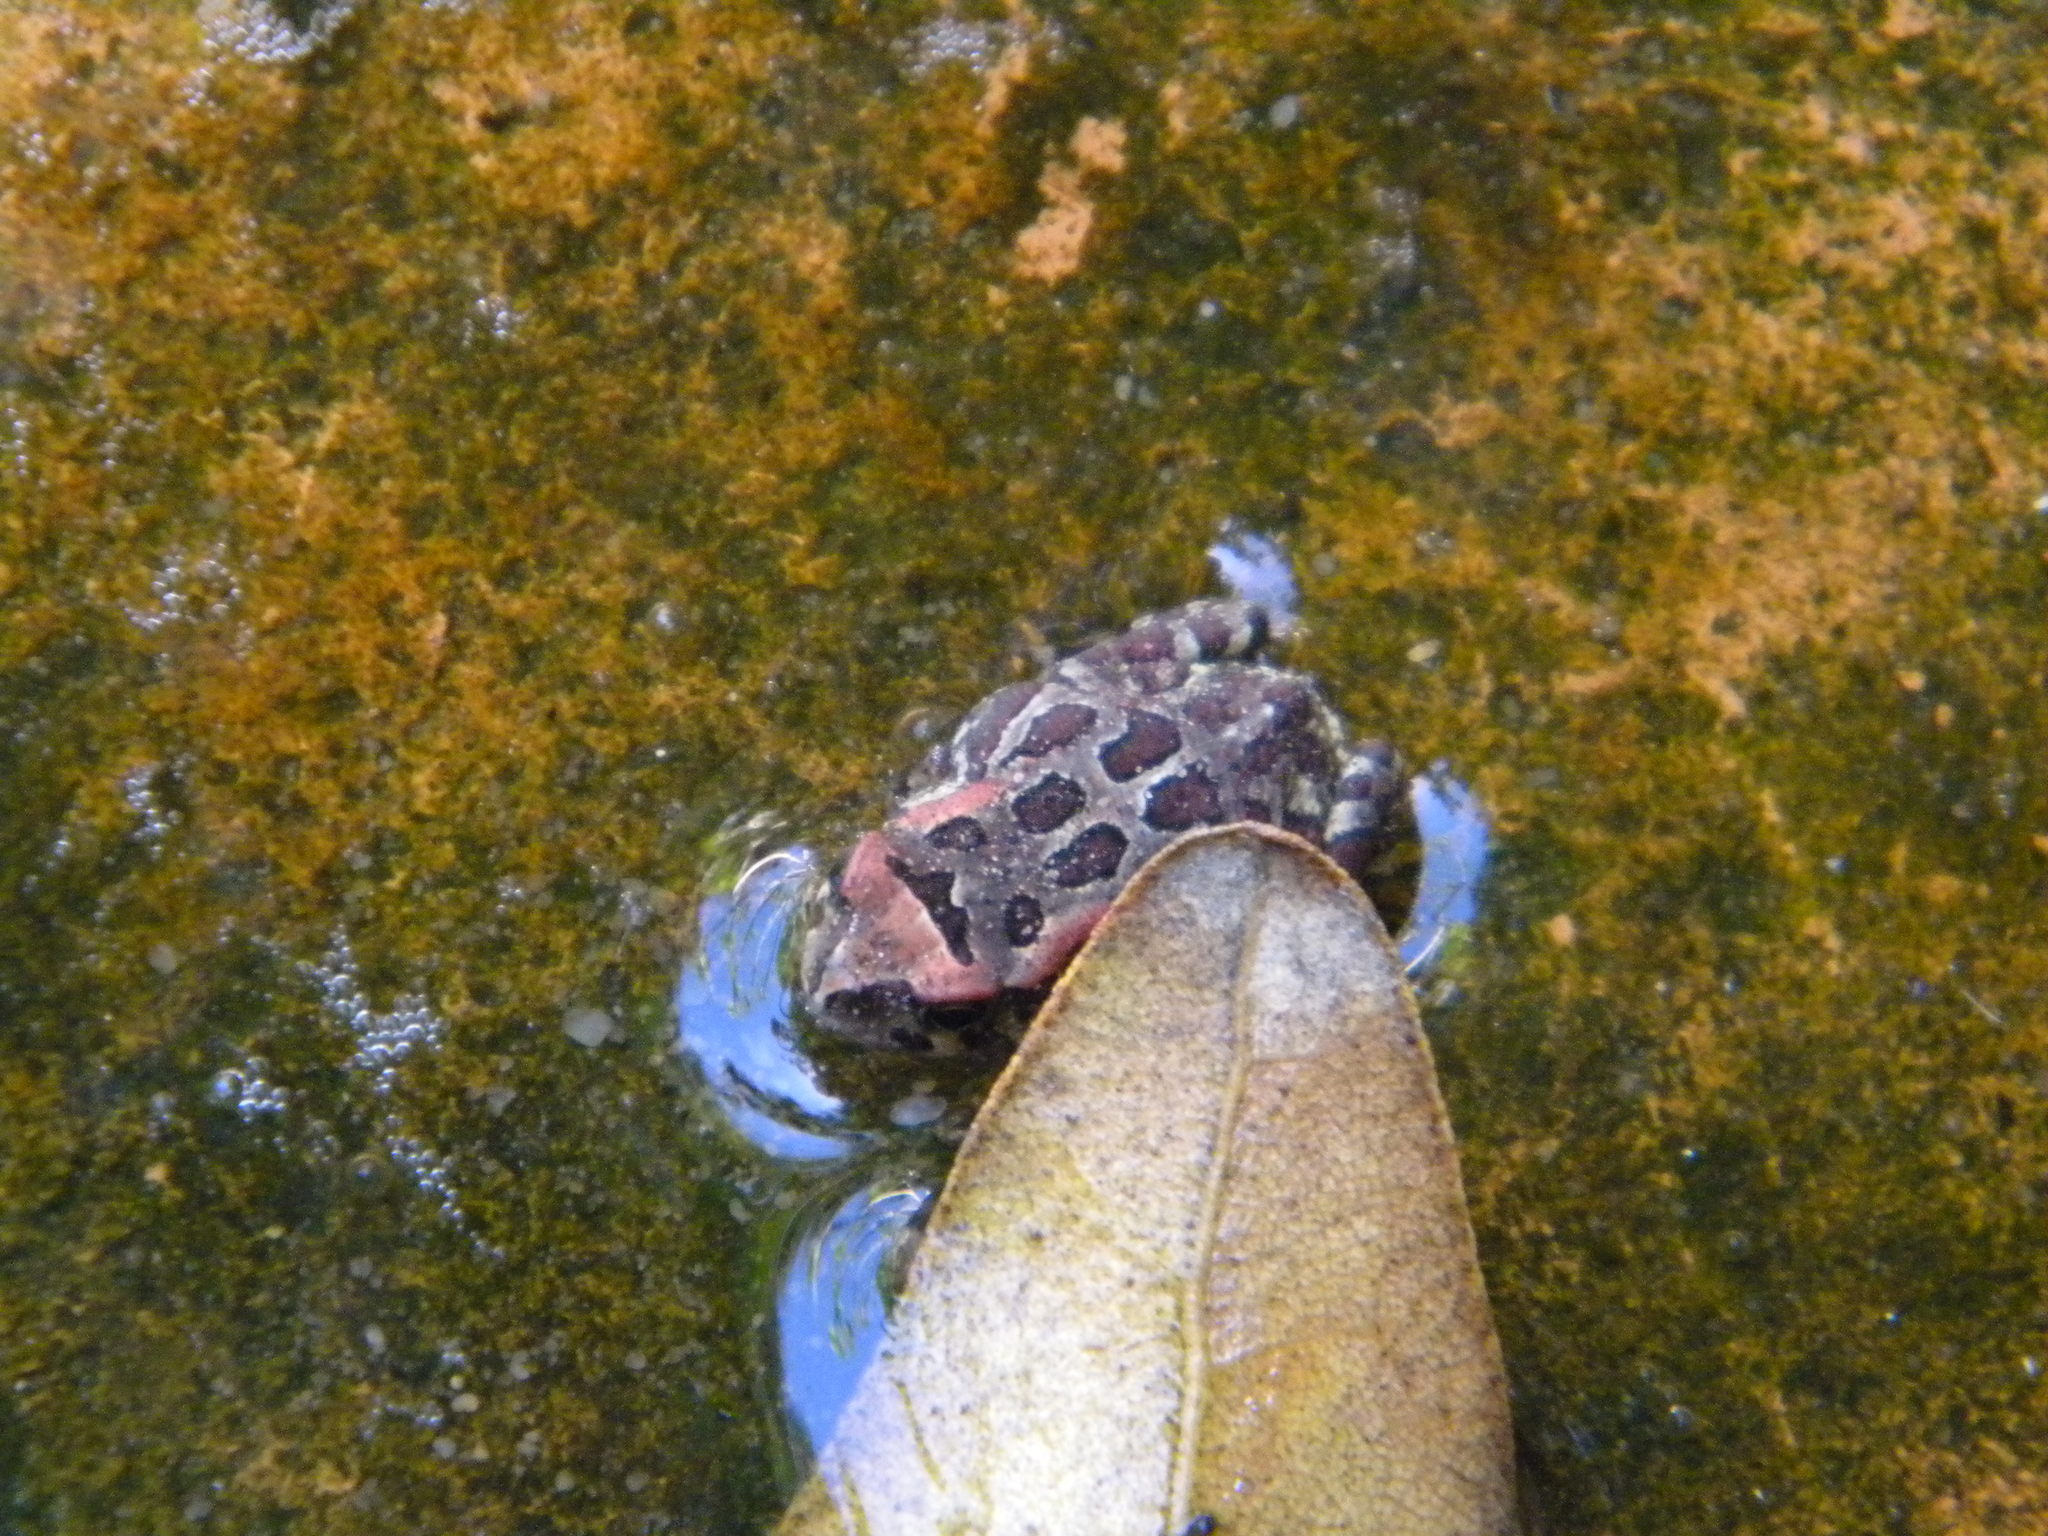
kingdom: Animalia
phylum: Chordata
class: Amphibia
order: Anura
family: Bufonidae
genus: Sclerophrys
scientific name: Sclerophrys pantherina
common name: Panther toad
